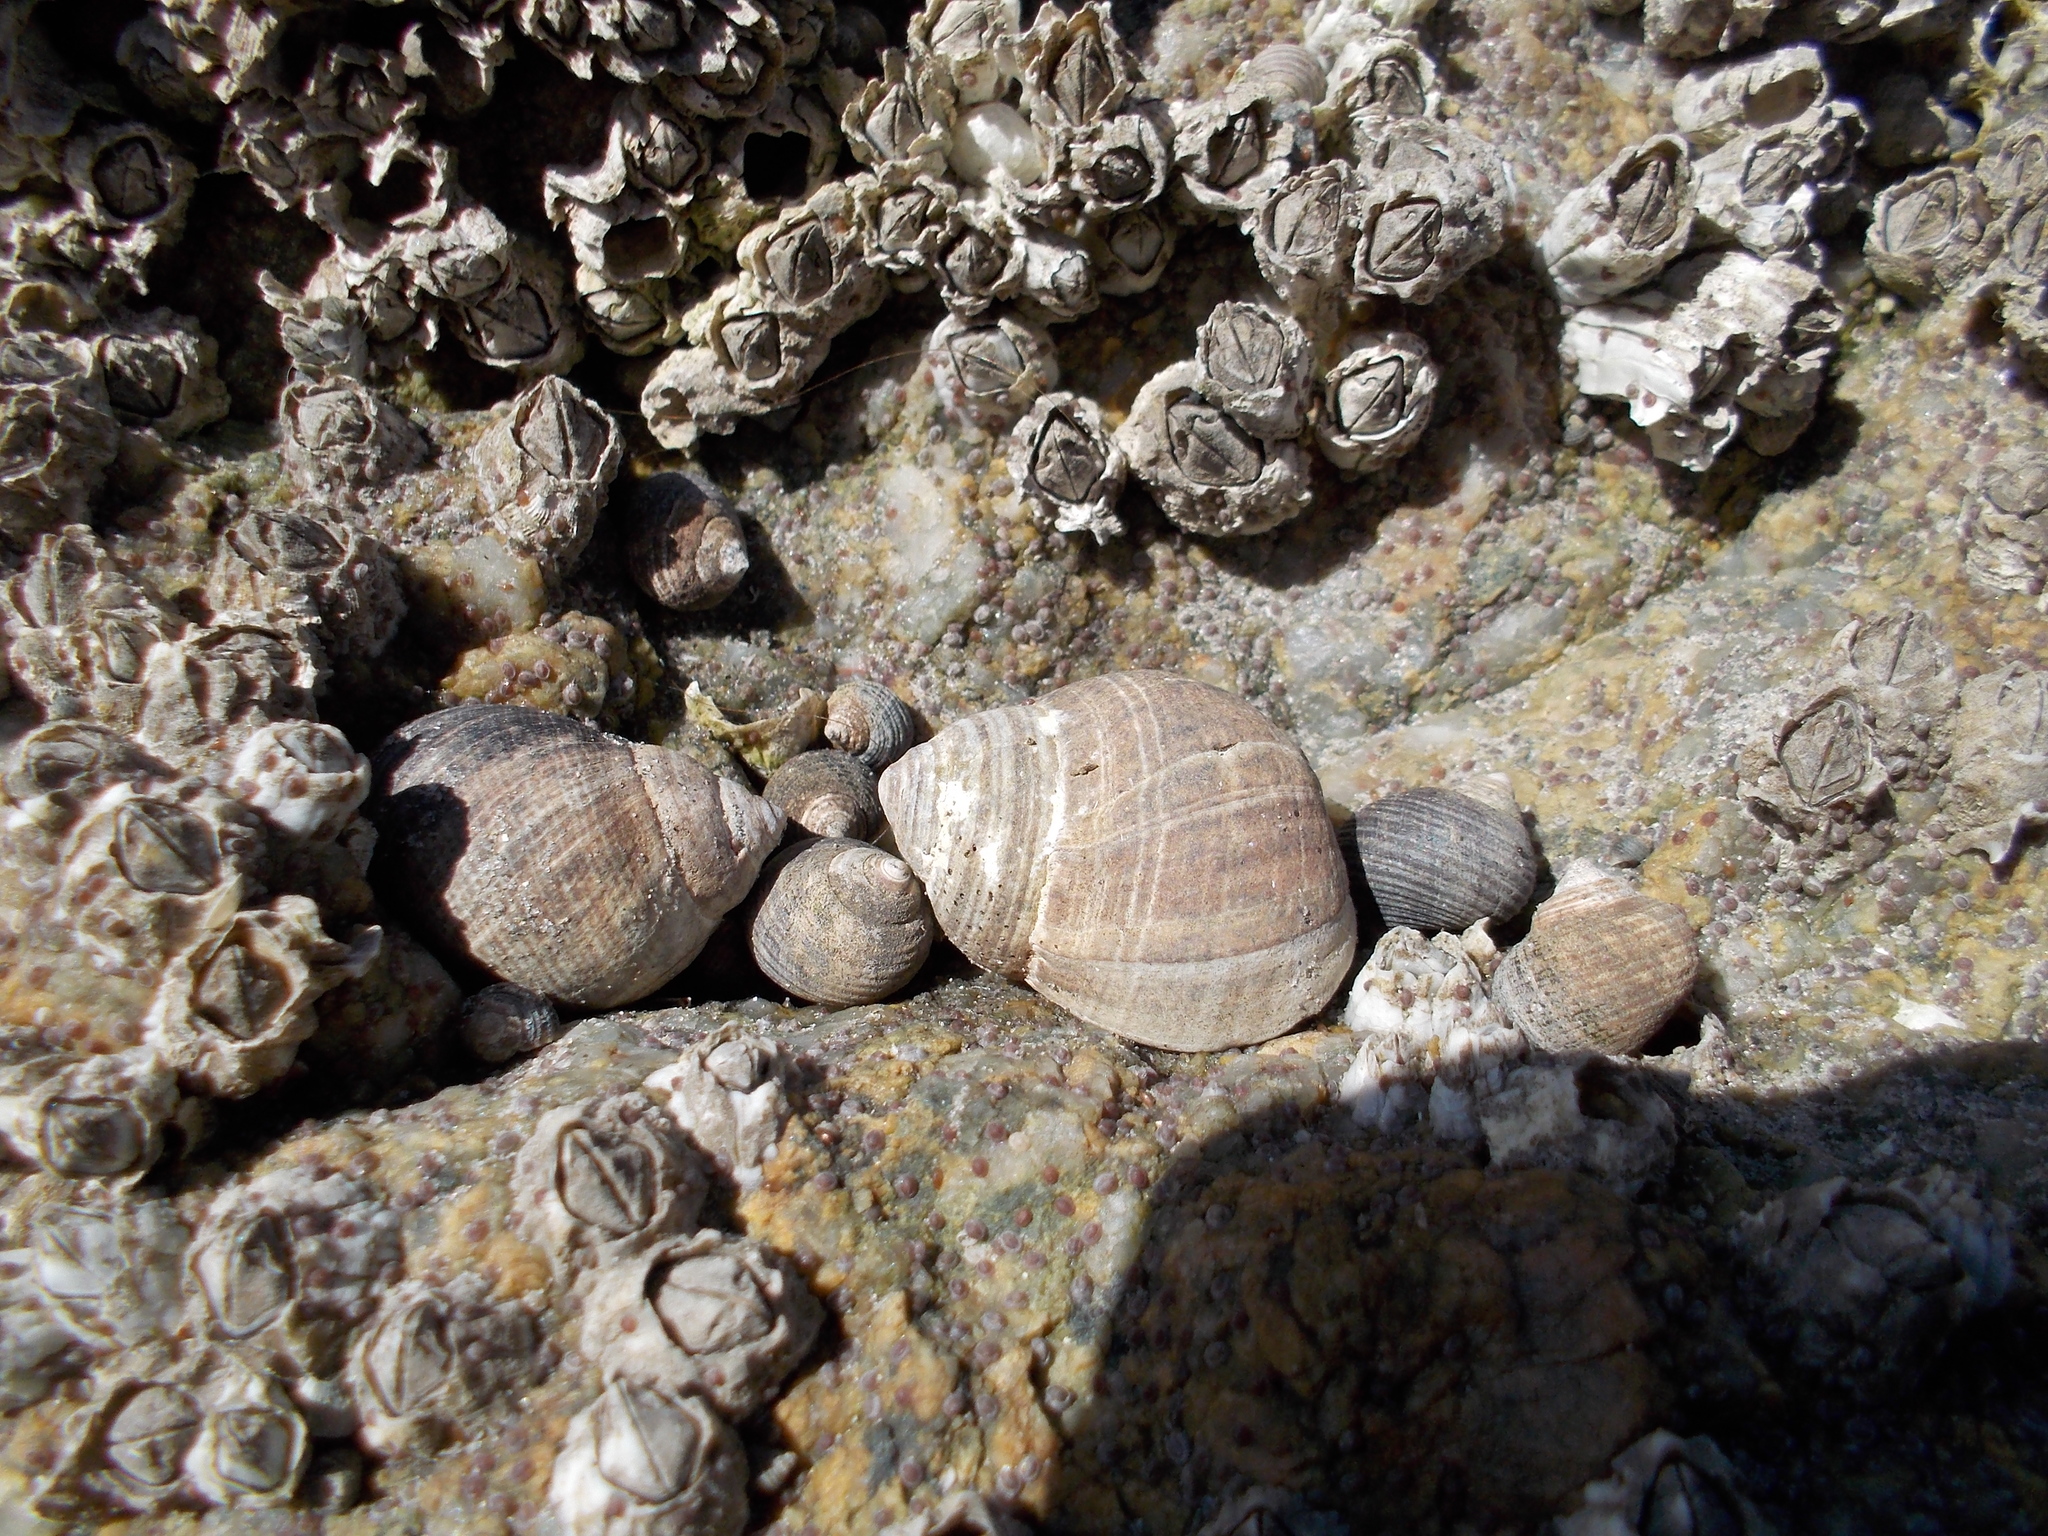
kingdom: Animalia
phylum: Mollusca
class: Gastropoda
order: Littorinimorpha
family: Littorinidae
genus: Littorina
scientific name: Littorina littorea
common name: Common periwinkle
